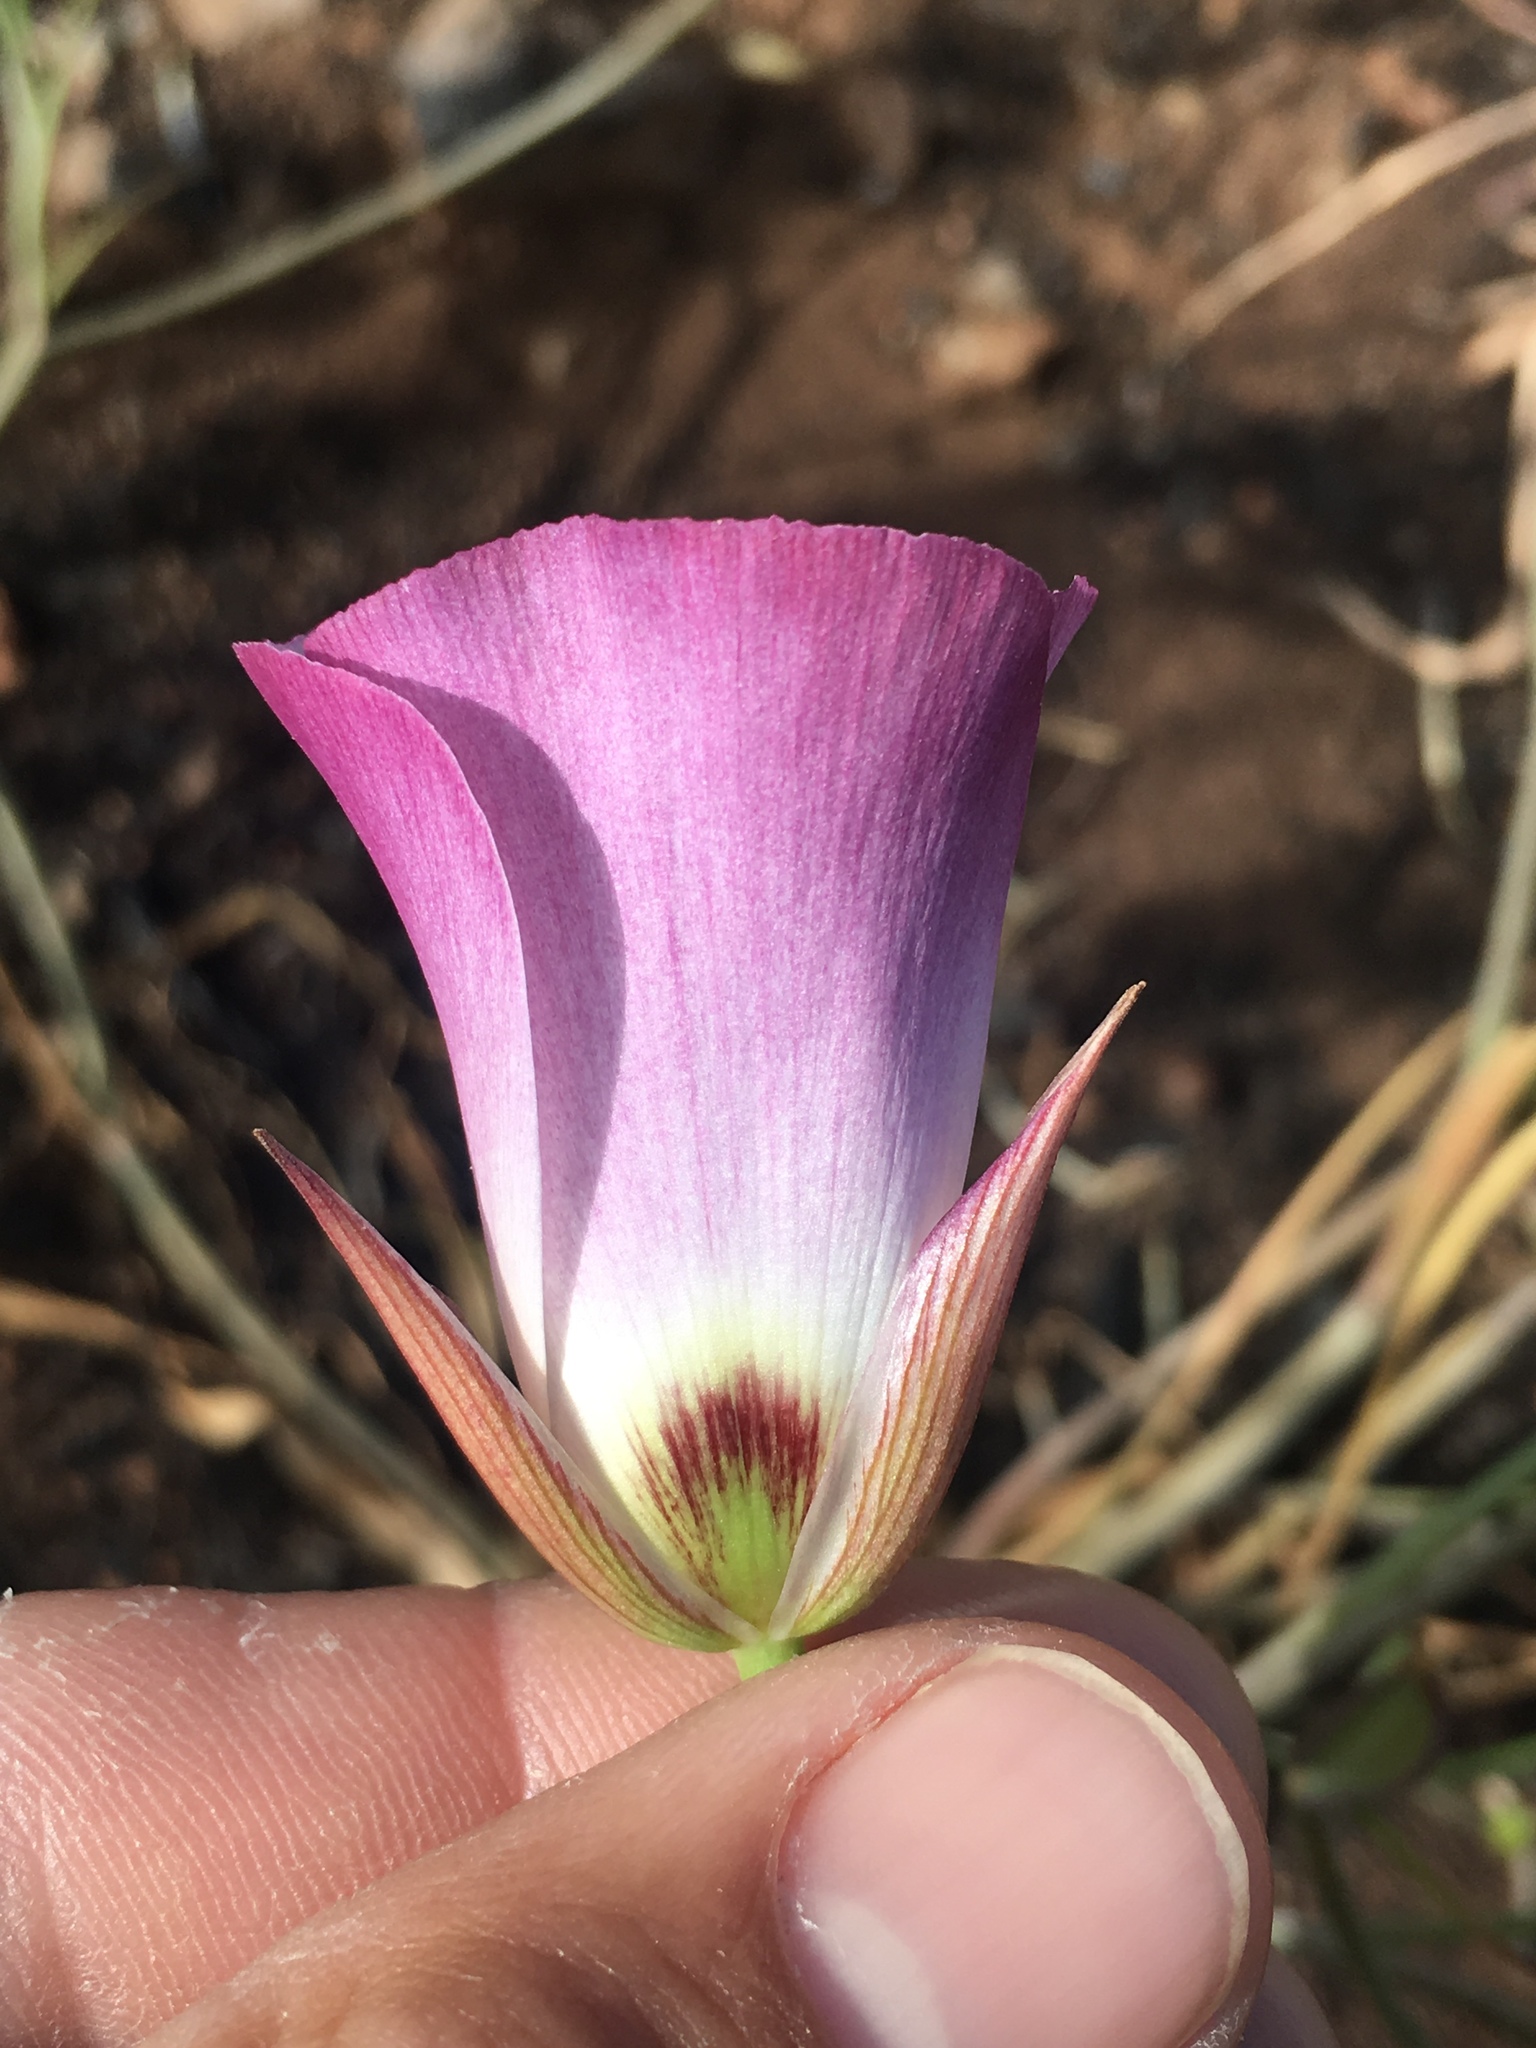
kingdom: Plantae
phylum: Tracheophyta
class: Liliopsida
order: Liliales
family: Liliaceae
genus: Calochortus
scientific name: Calochortus catalinae
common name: Catalina mariposa-lily
